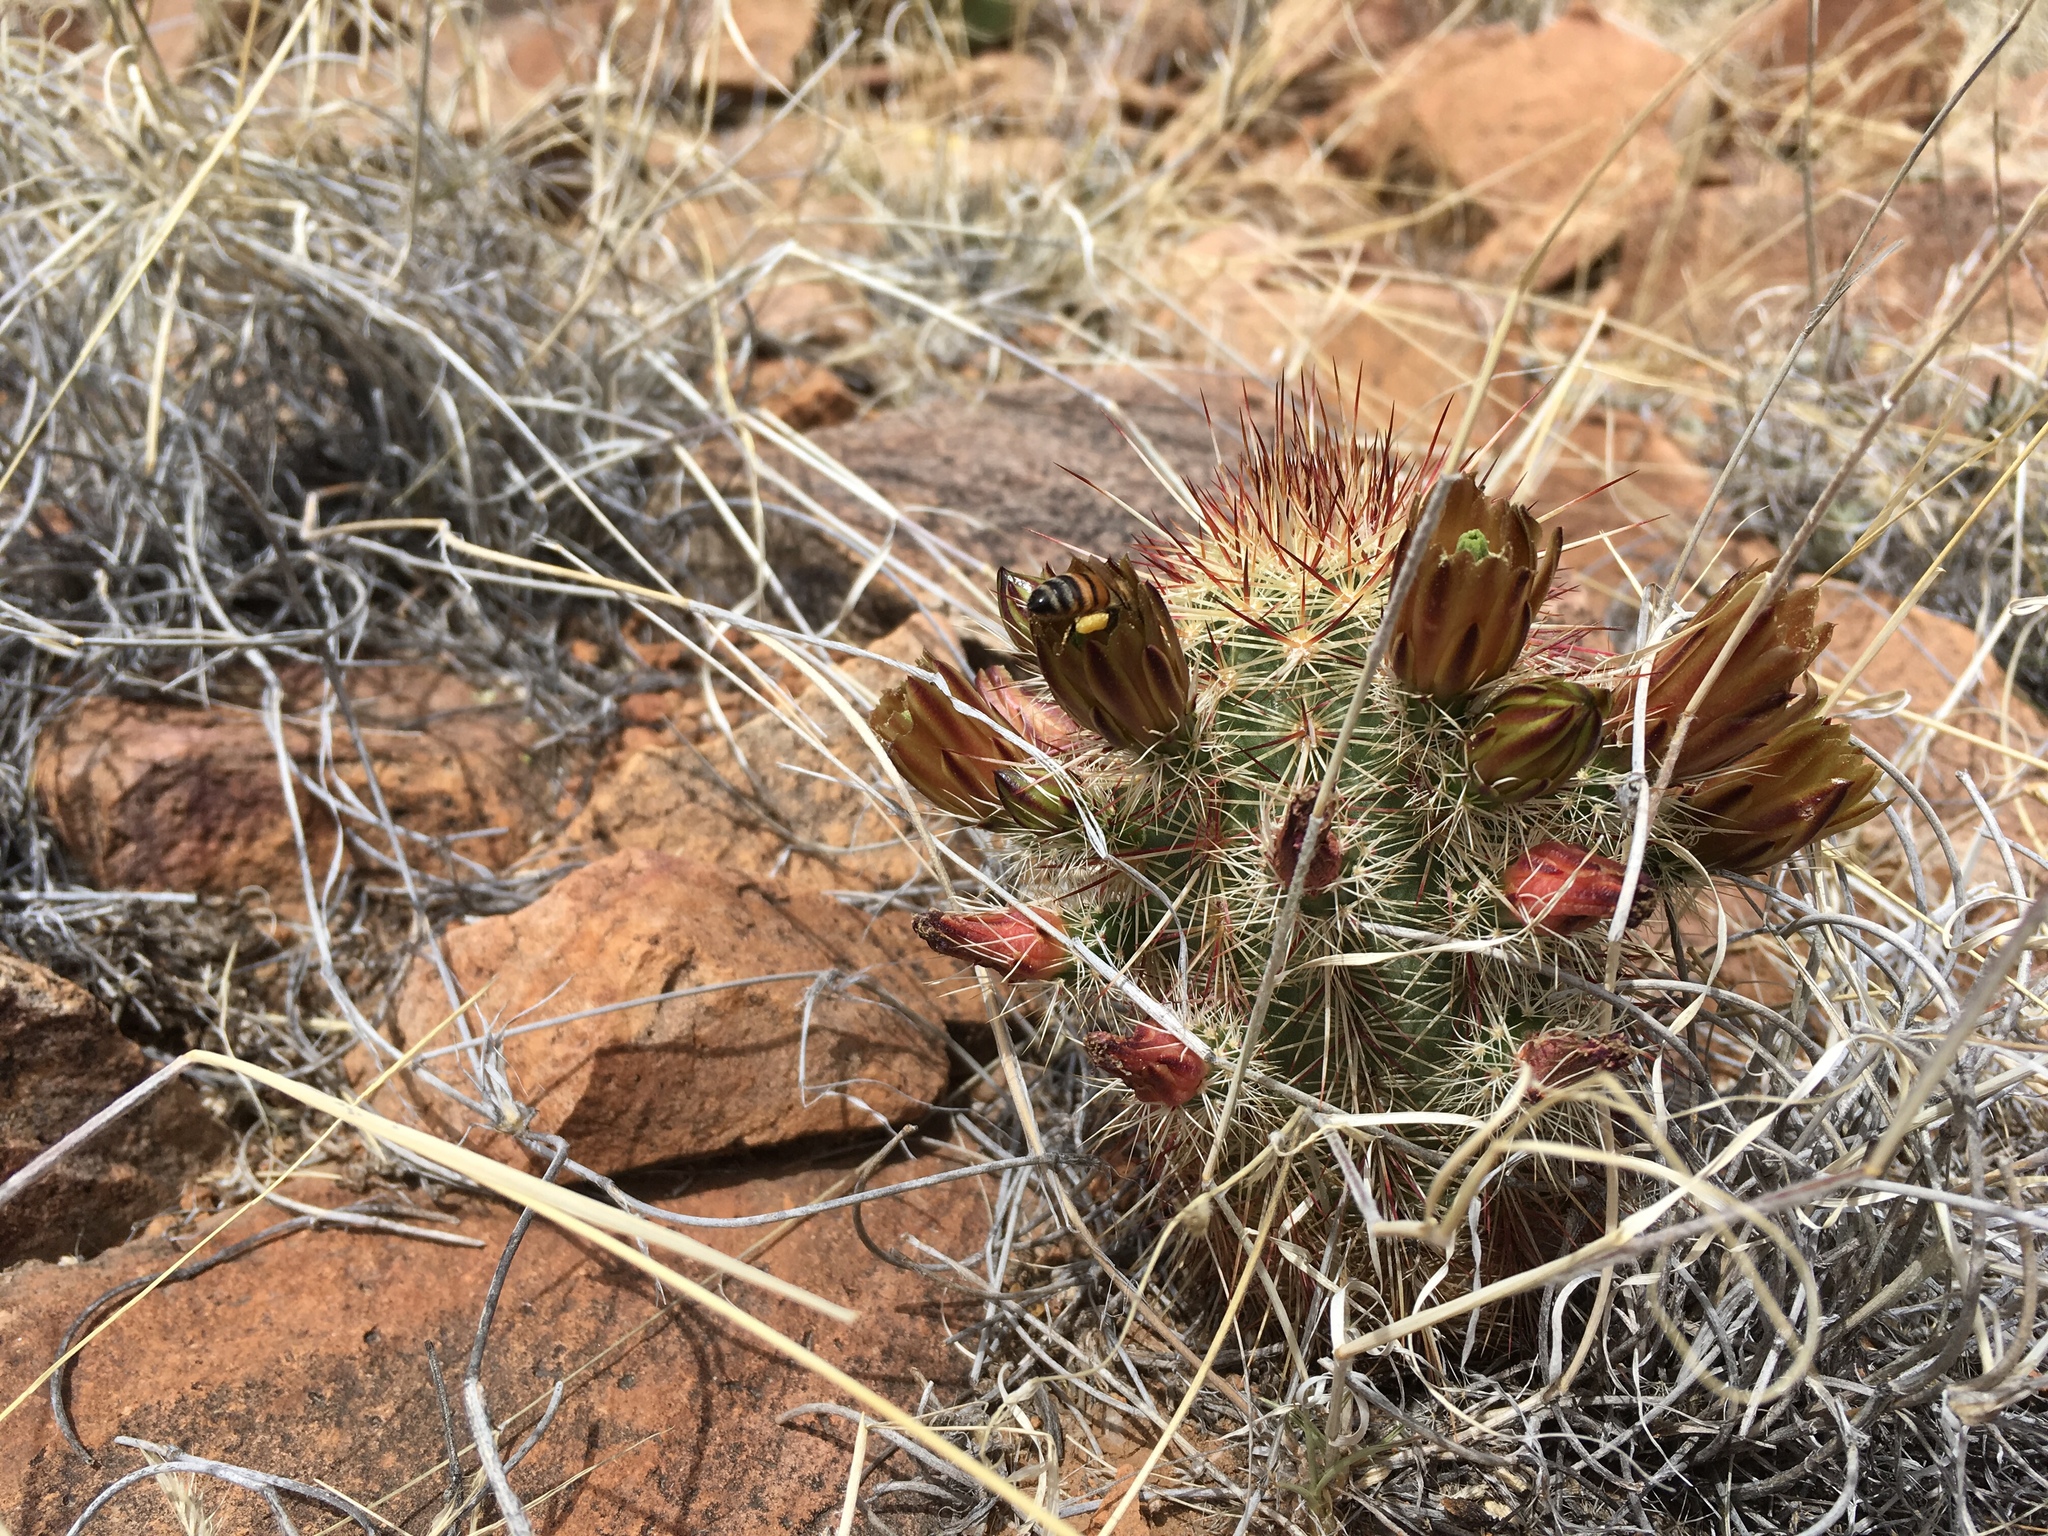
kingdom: Plantae
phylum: Tracheophyta
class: Magnoliopsida
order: Caryophyllales
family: Cactaceae
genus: Echinocereus
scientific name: Echinocereus viridiflorus
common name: Nylon hedgehog cactus
